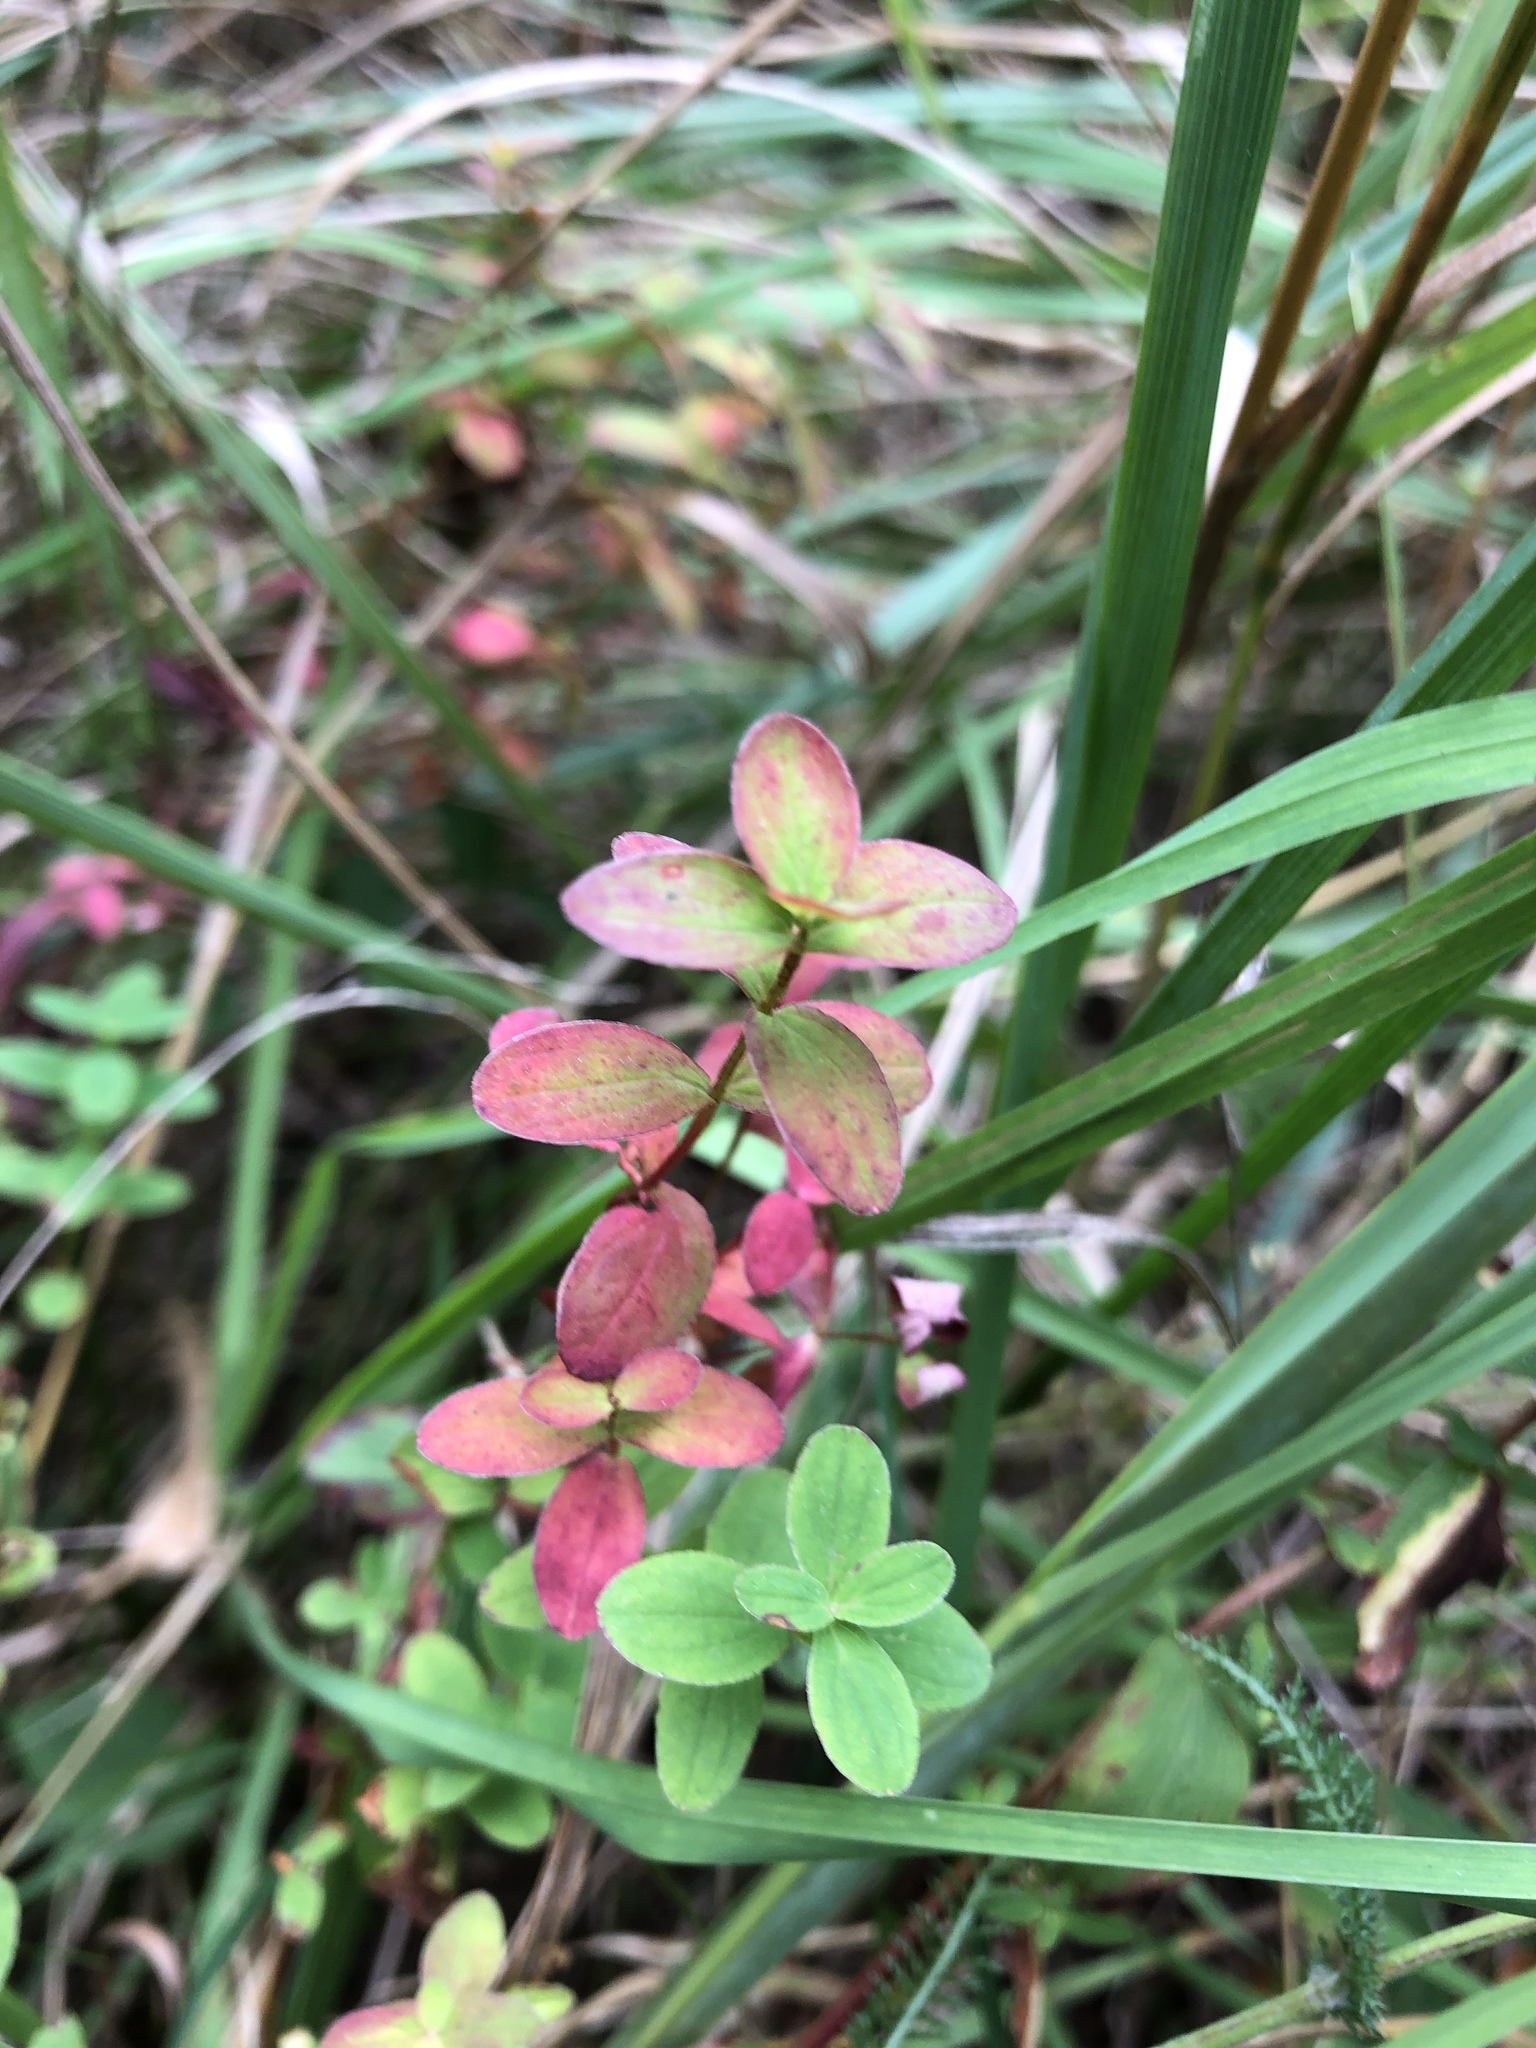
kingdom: Plantae
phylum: Tracheophyta
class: Magnoliopsida
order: Malpighiales
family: Hypericaceae
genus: Hypericum
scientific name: Hypericum maculatum
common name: Imperforate st. john's-wort
